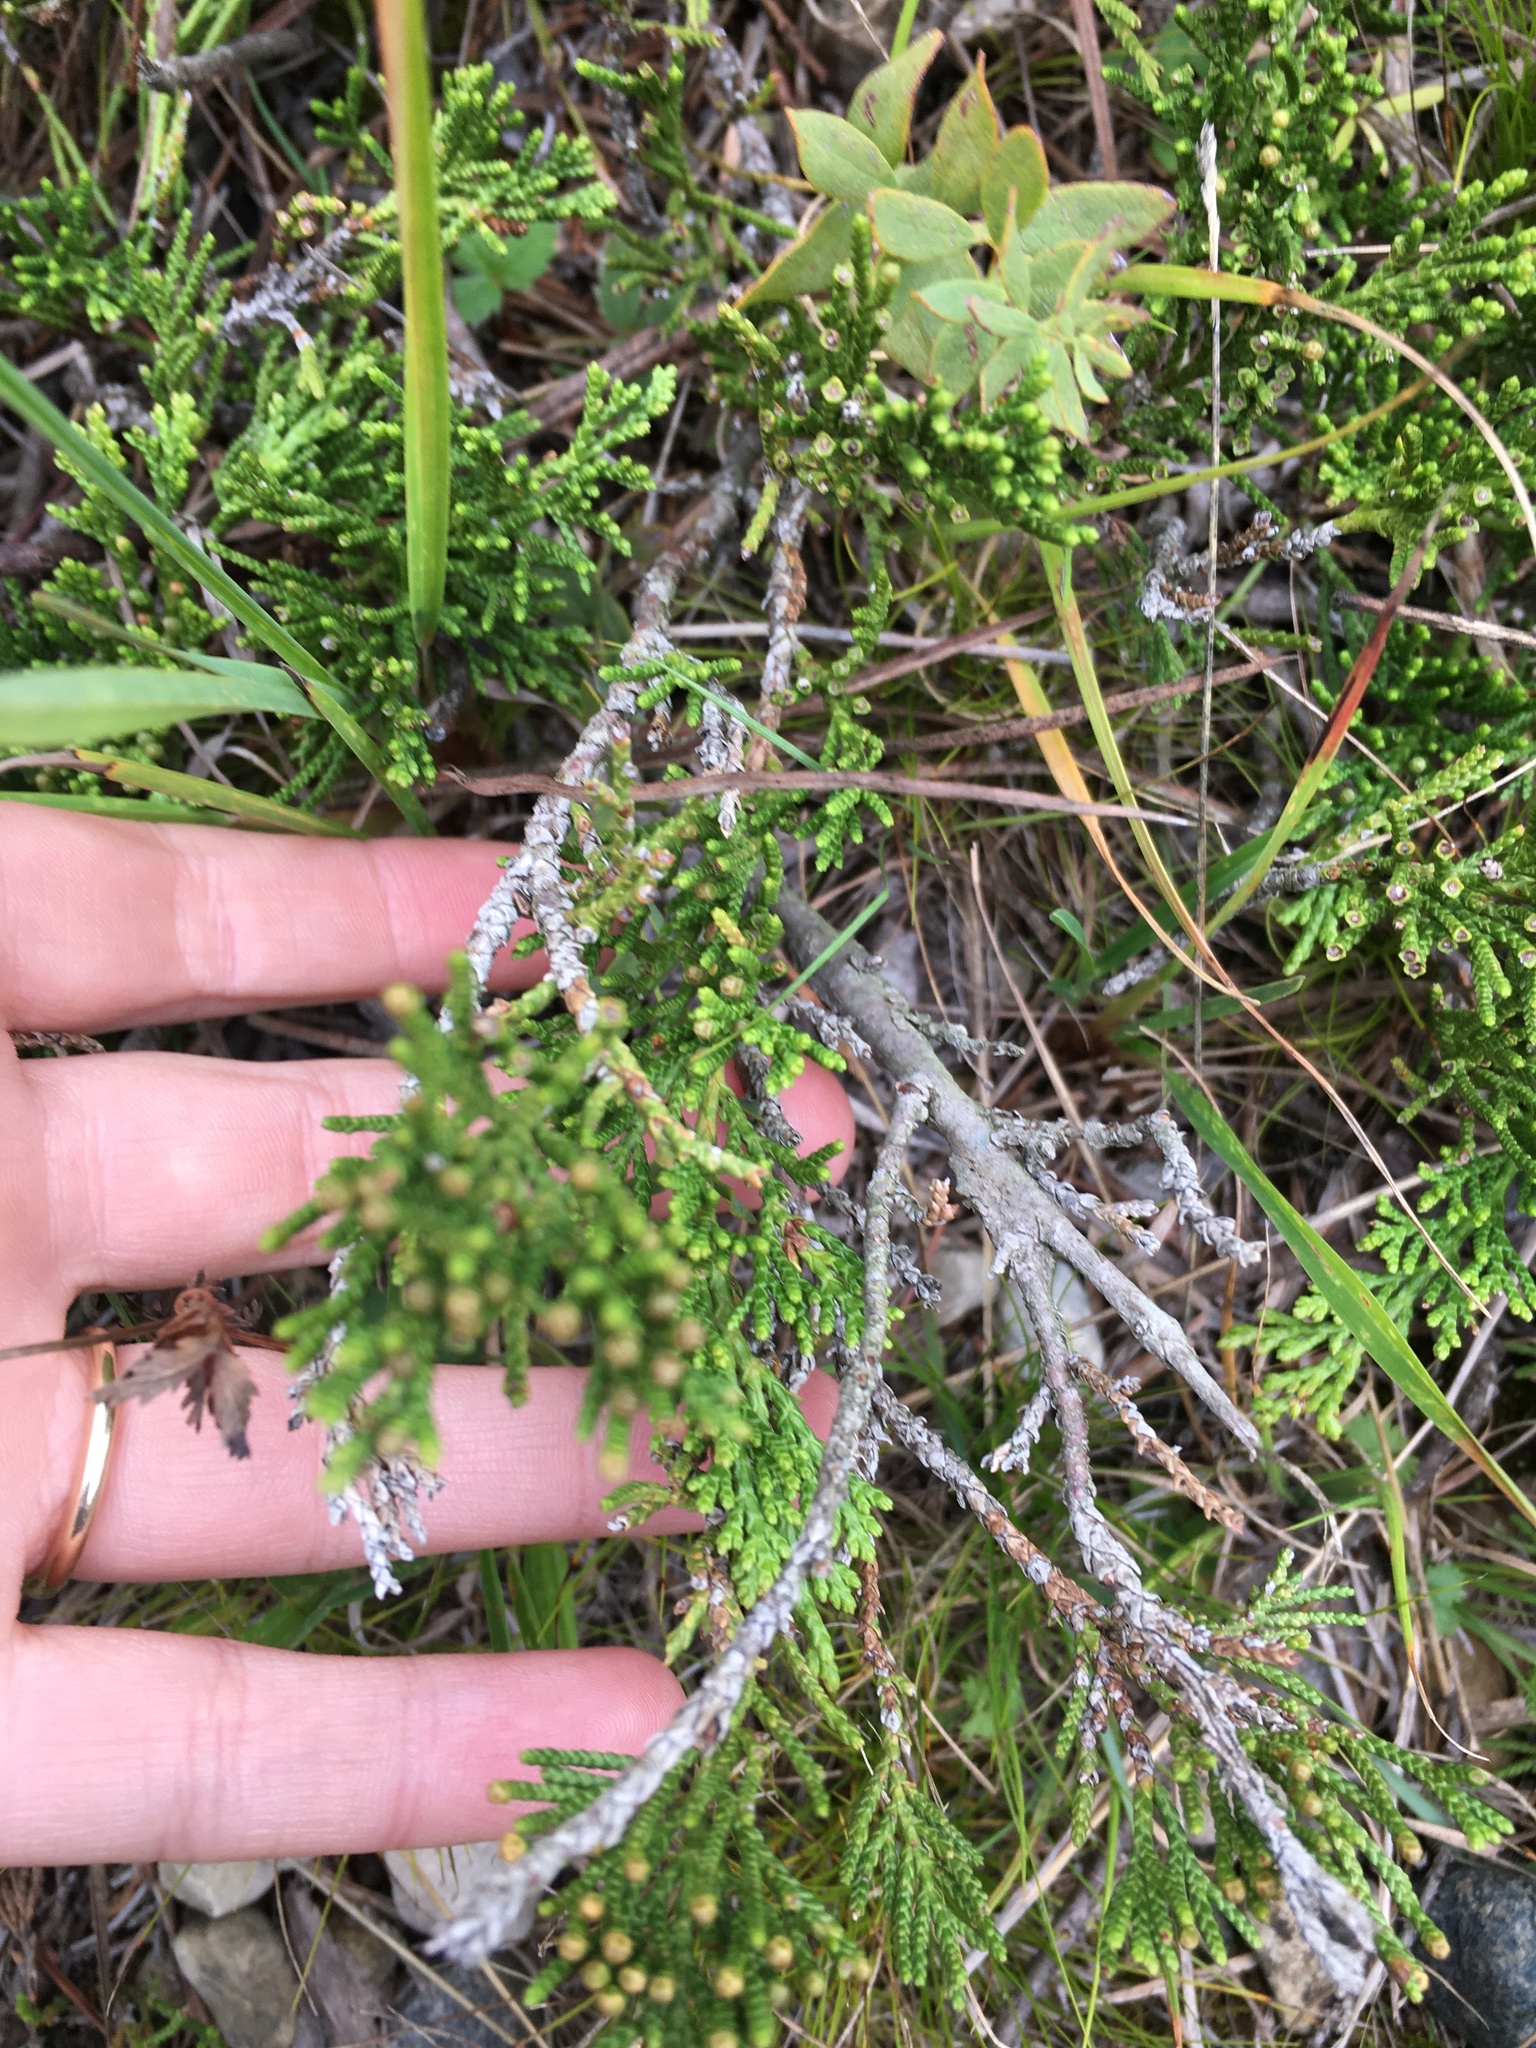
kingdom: Plantae
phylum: Tracheophyta
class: Pinopsida
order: Pinales
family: Cupressaceae
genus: Juniperus
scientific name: Juniperus horizontalis
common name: Creeping juniper
